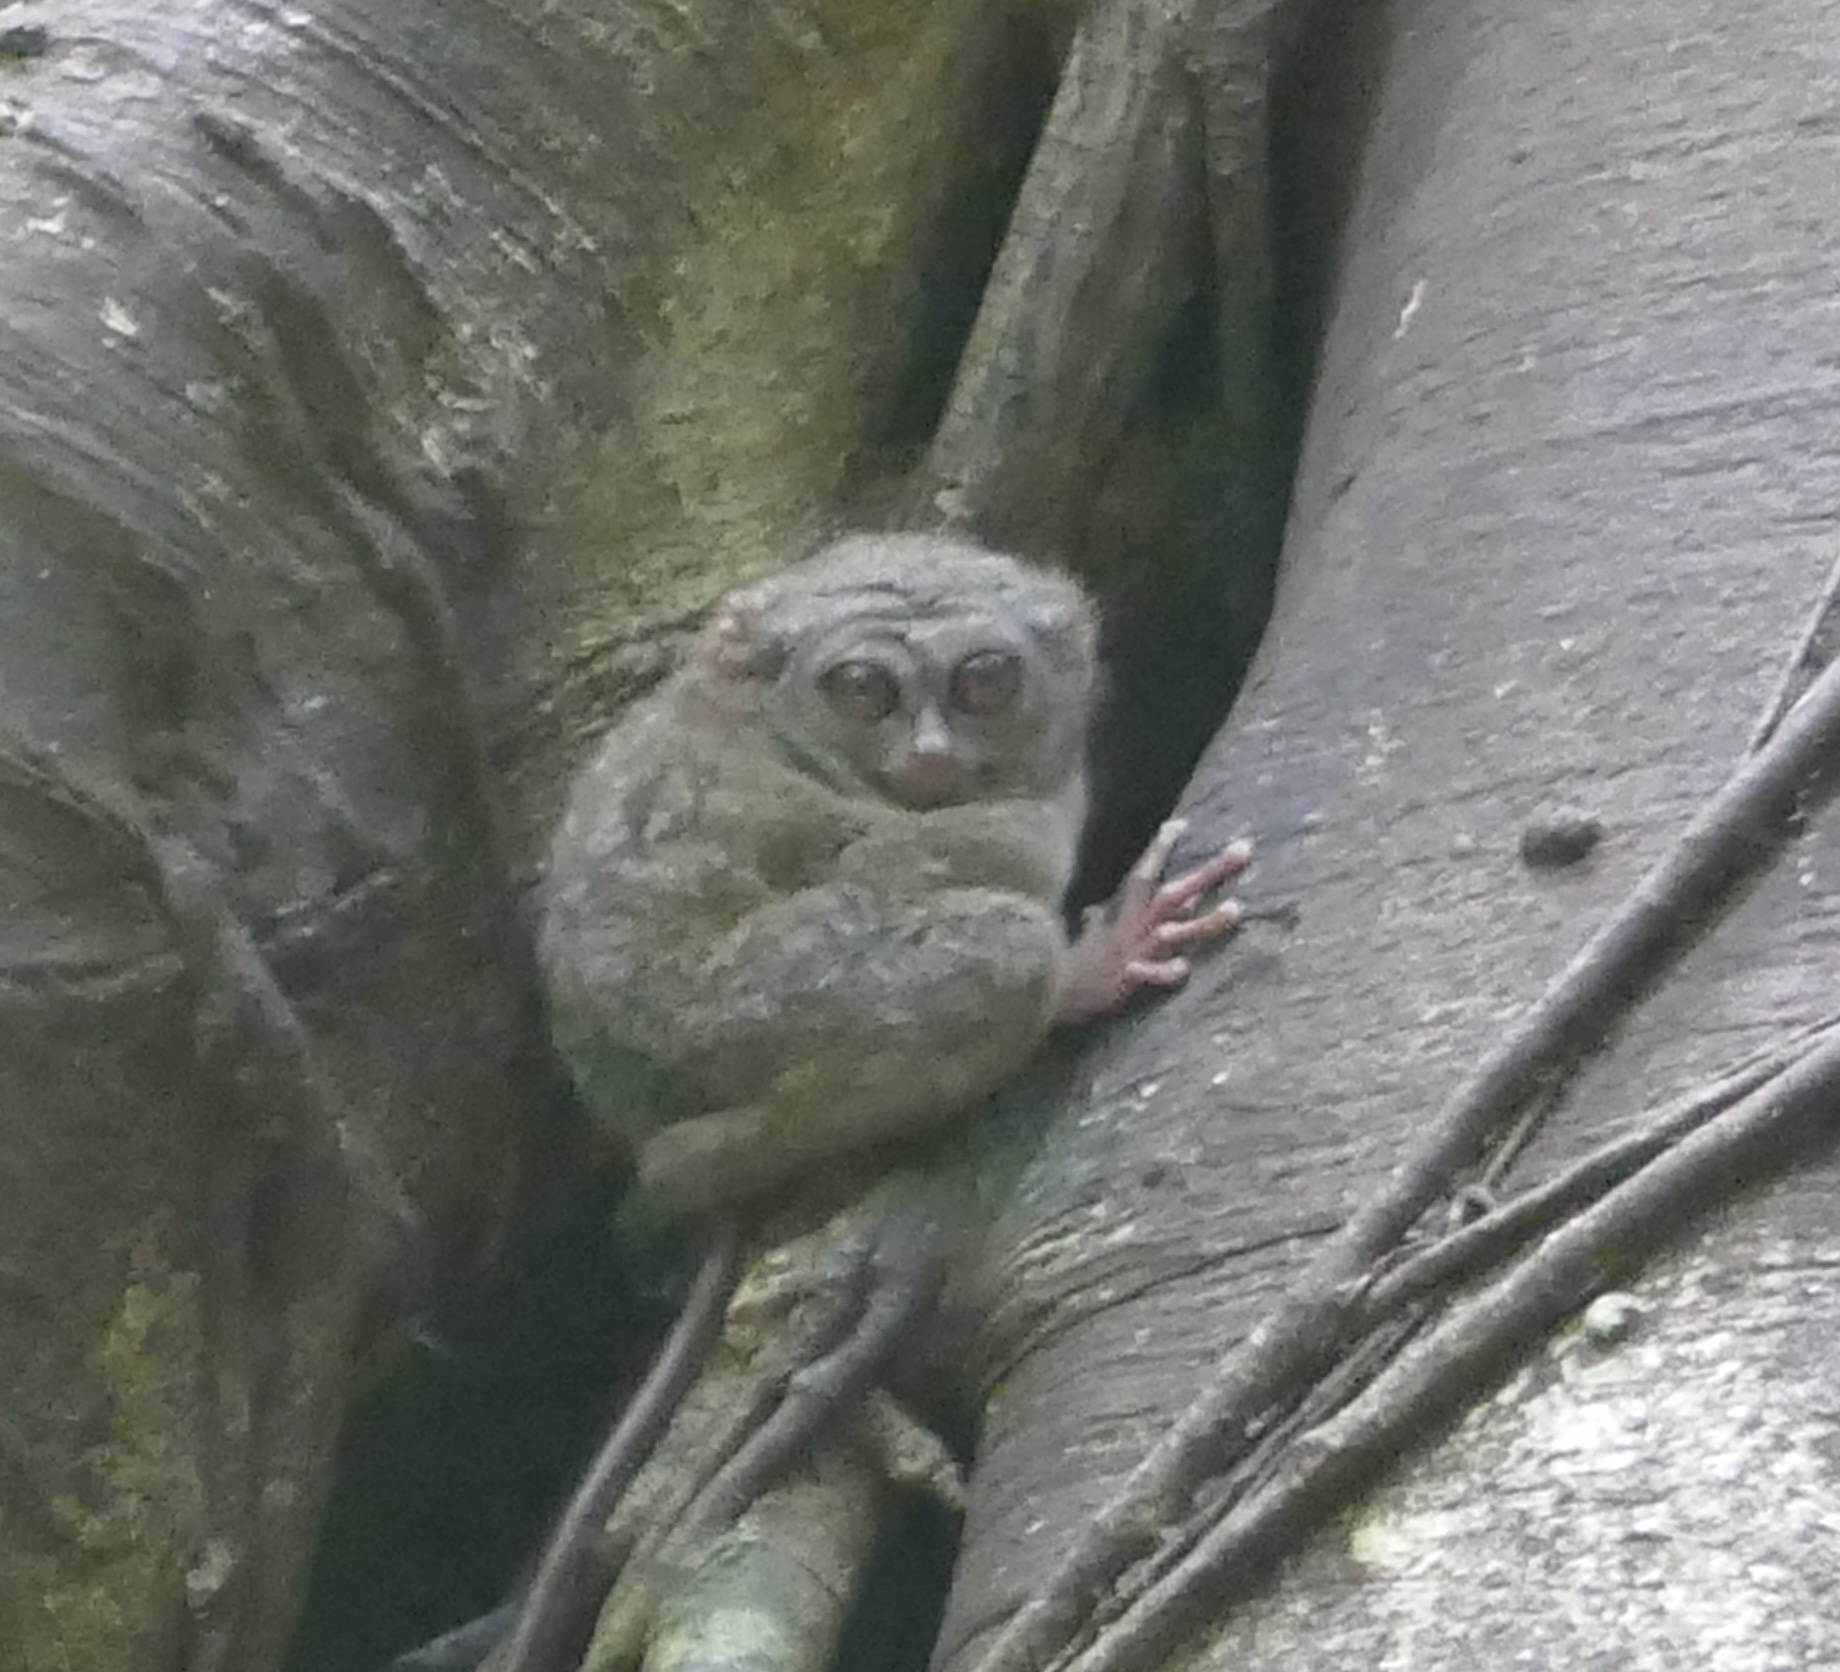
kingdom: Animalia
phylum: Chordata
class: Mammalia
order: Primates
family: Tarsiidae
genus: Tarsius
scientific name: Tarsius spectrumgurskyae
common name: Gursky's spectral tarsier
